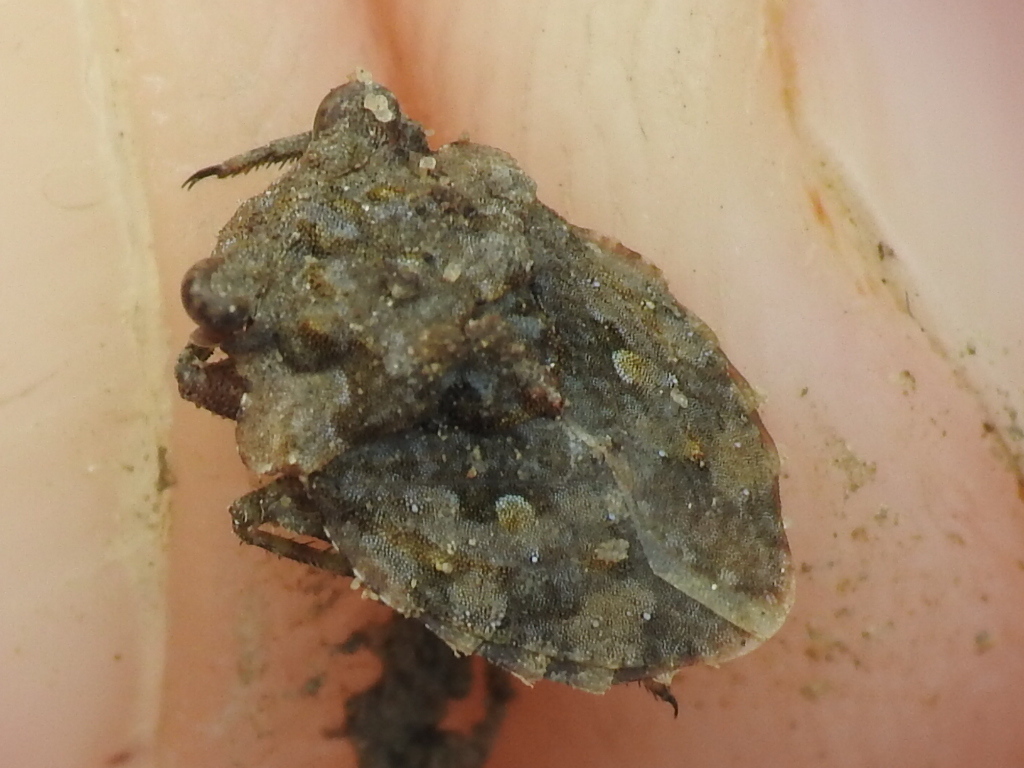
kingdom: Animalia
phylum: Arthropoda
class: Insecta
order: Hemiptera
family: Gelastocoridae
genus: Gelastocoris
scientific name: Gelastocoris oculatus
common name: Toad bug
